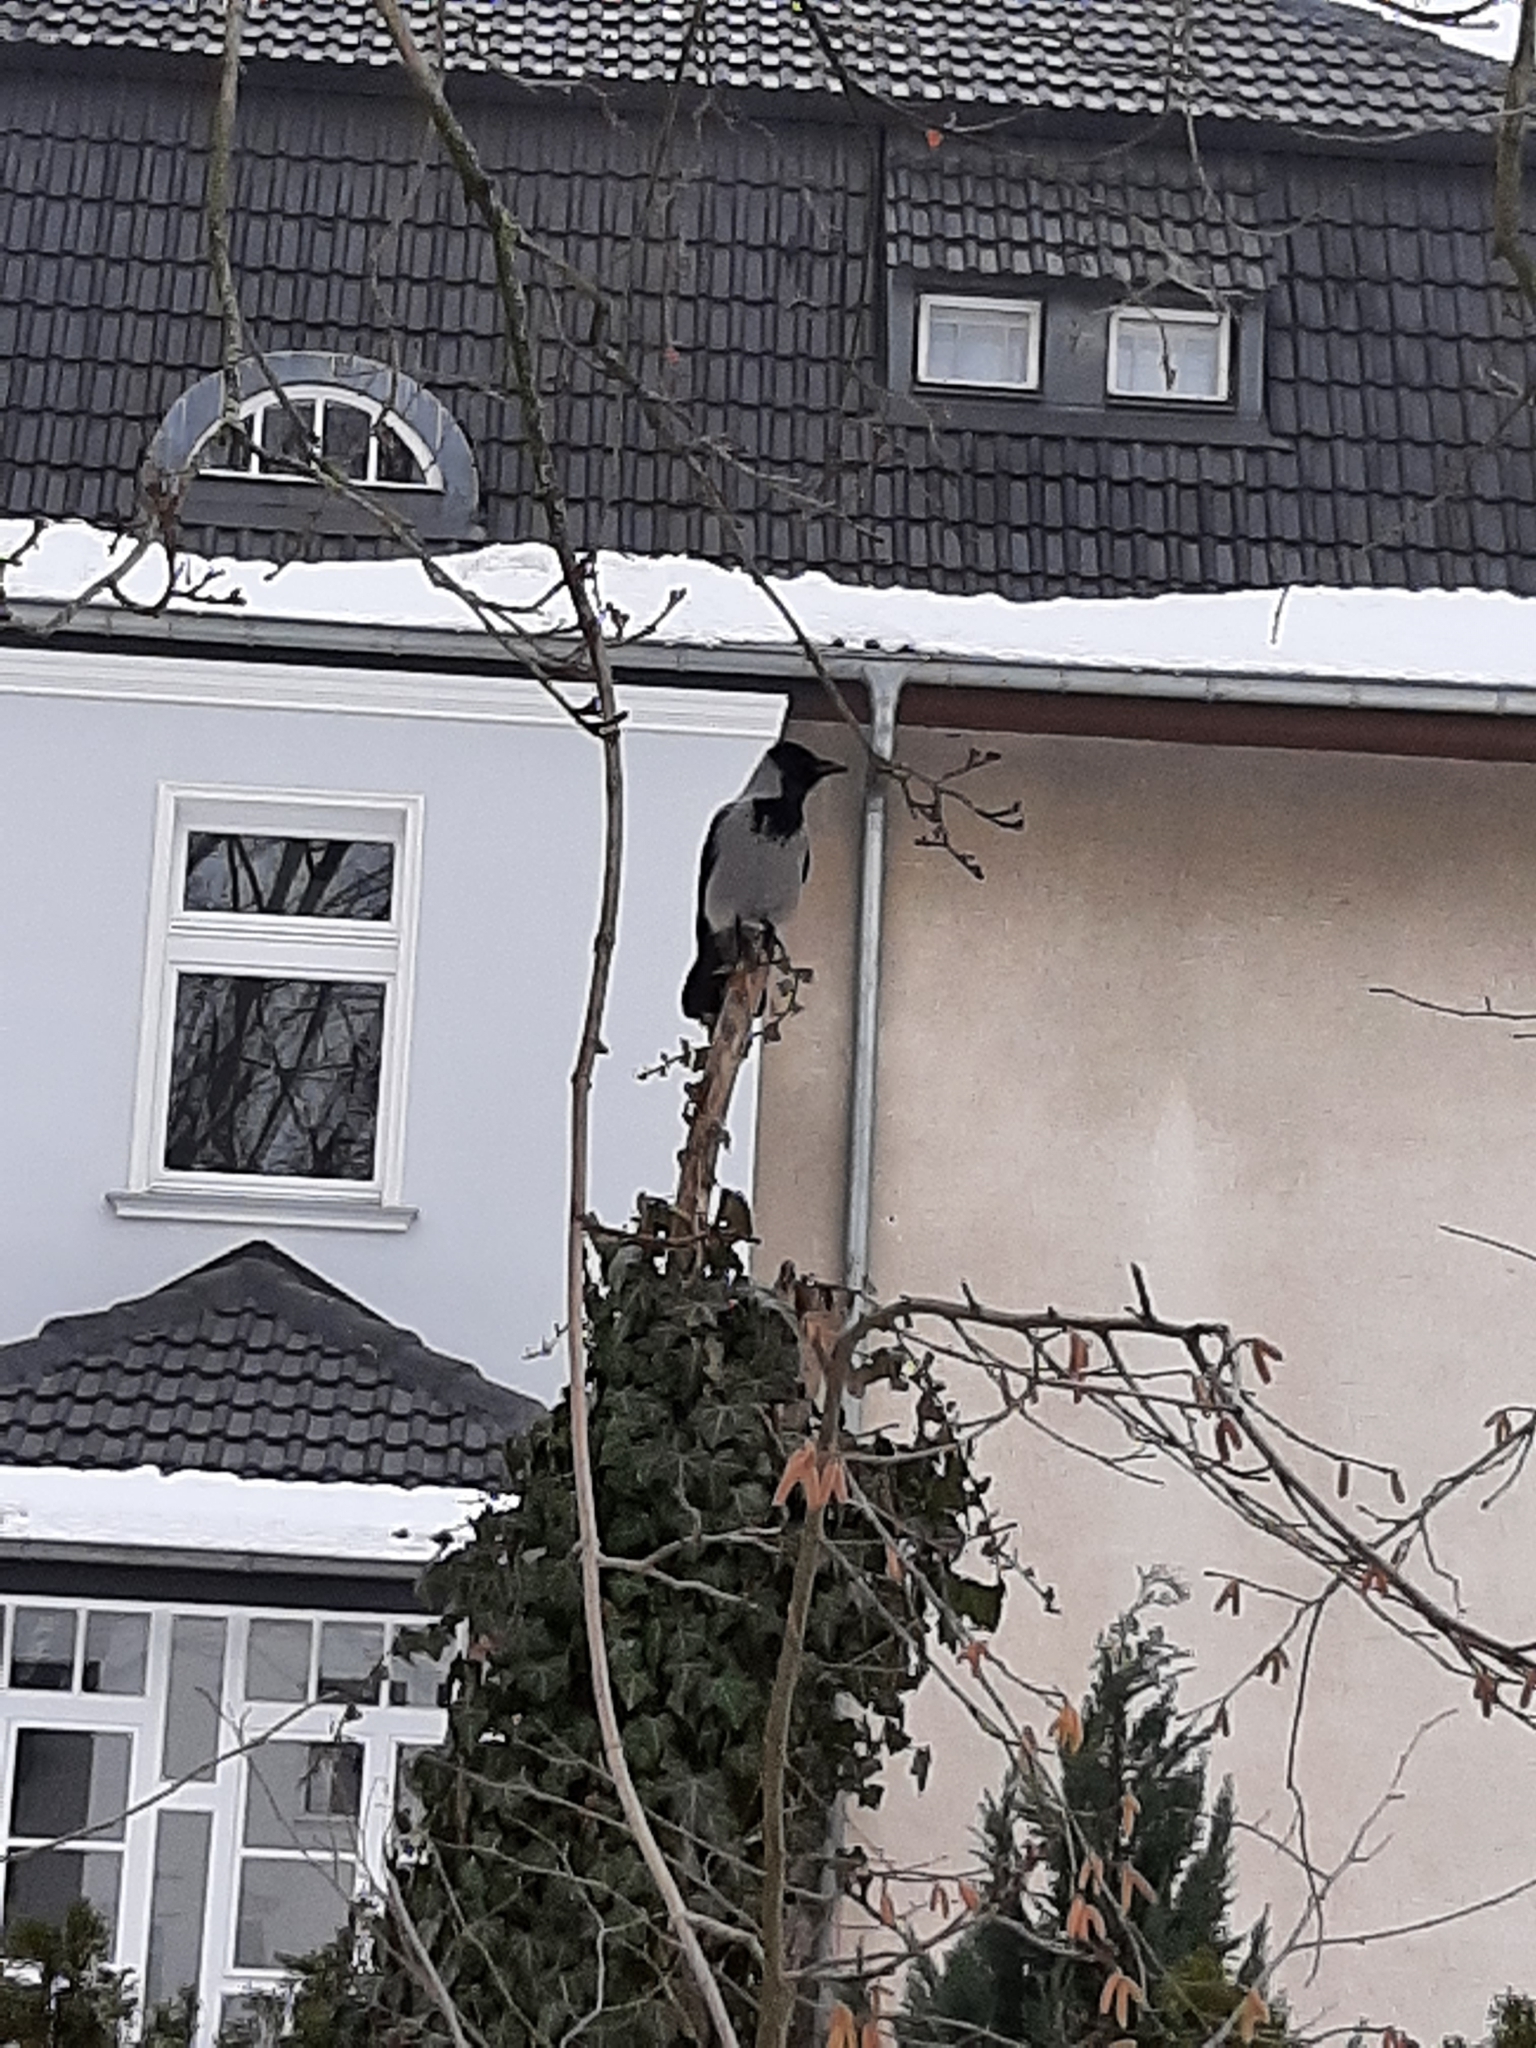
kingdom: Animalia
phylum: Chordata
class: Aves
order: Passeriformes
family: Corvidae
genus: Corvus
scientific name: Corvus cornix
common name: Hooded crow
